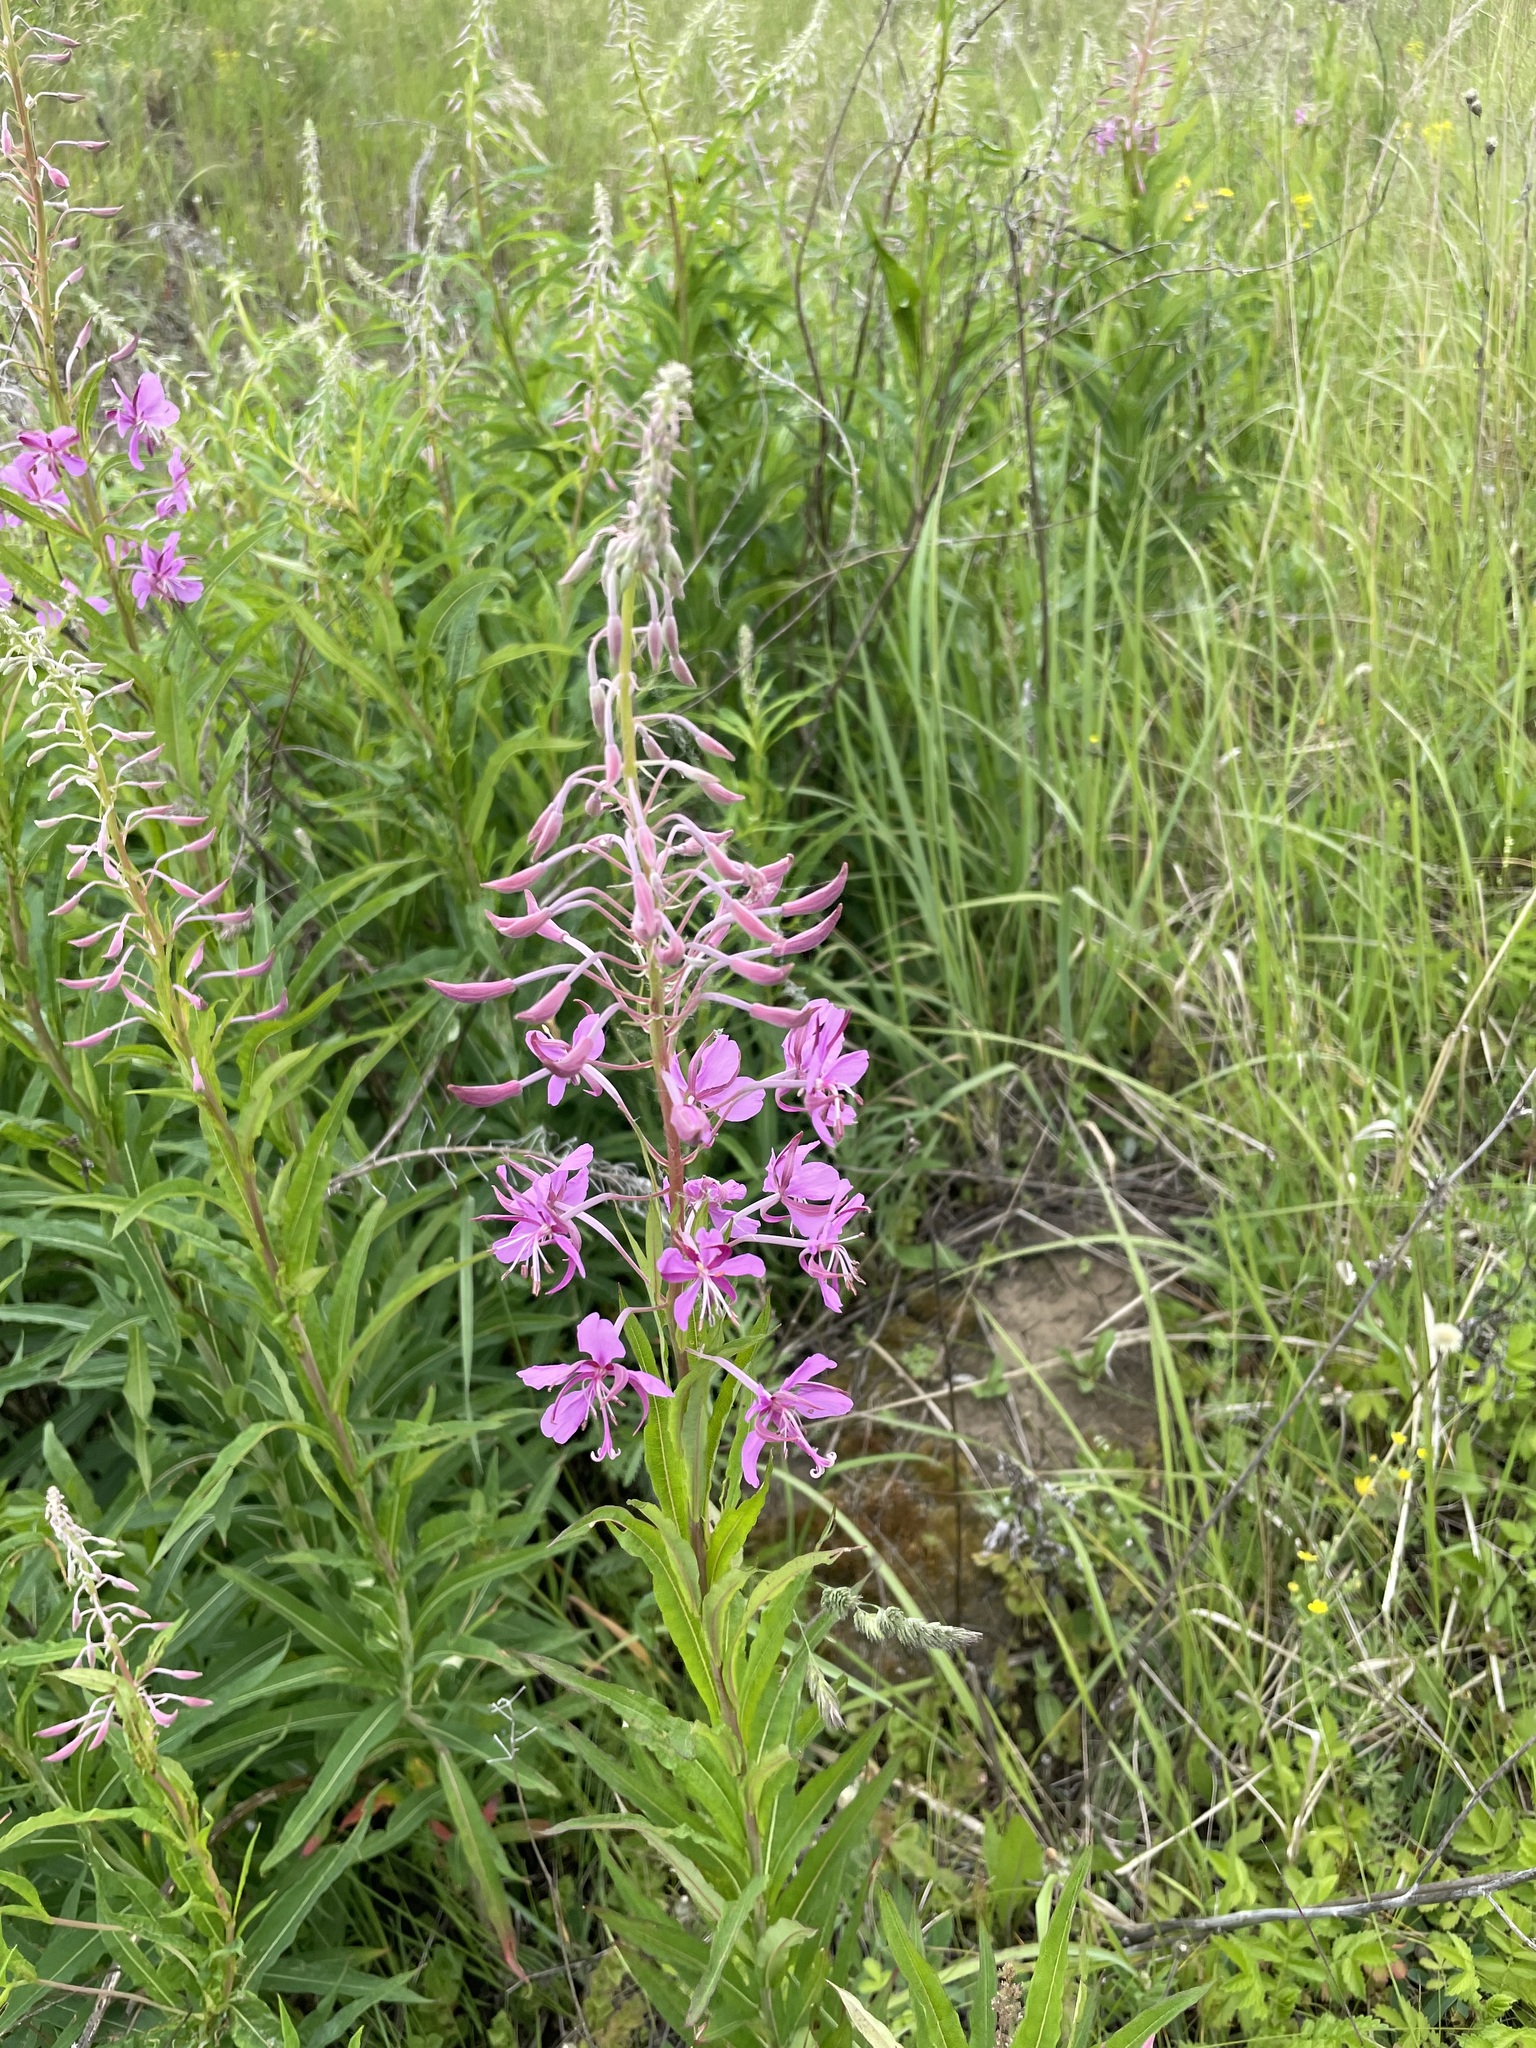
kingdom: Plantae
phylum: Tracheophyta
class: Magnoliopsida
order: Myrtales
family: Onagraceae
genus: Chamaenerion
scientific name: Chamaenerion angustifolium
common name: Fireweed
